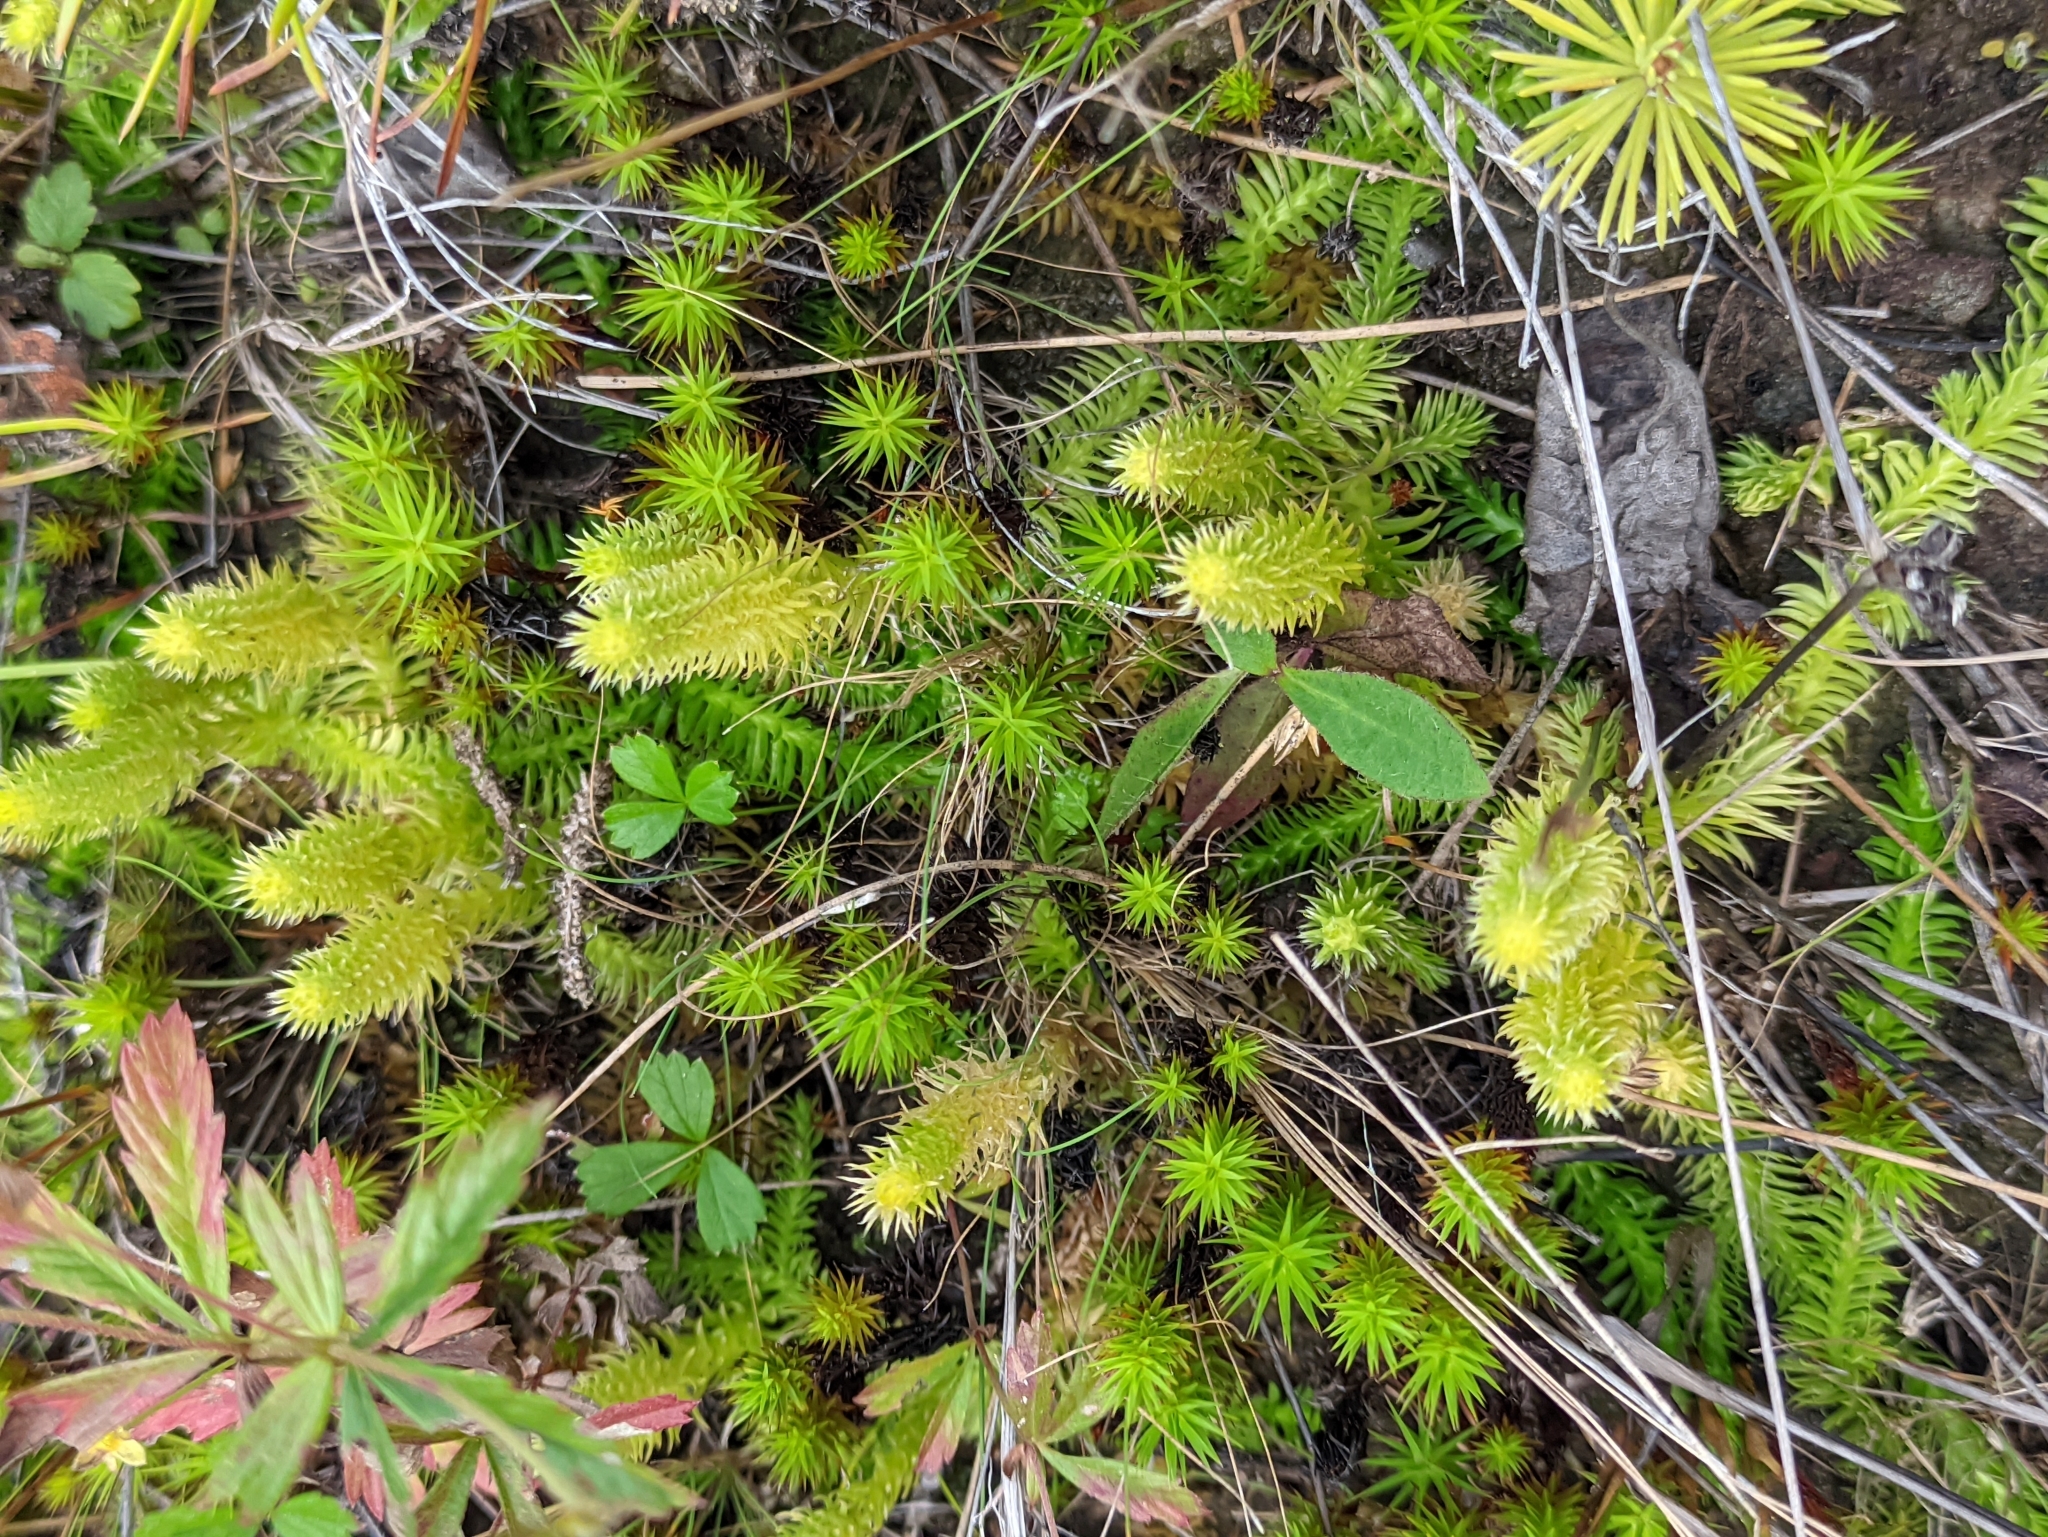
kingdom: Plantae
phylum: Tracheophyta
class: Lycopodiopsida
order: Lycopodiales
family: Lycopodiaceae
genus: Lycopodiella
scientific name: Lycopodiella inundata
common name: Marsh clubmoss
